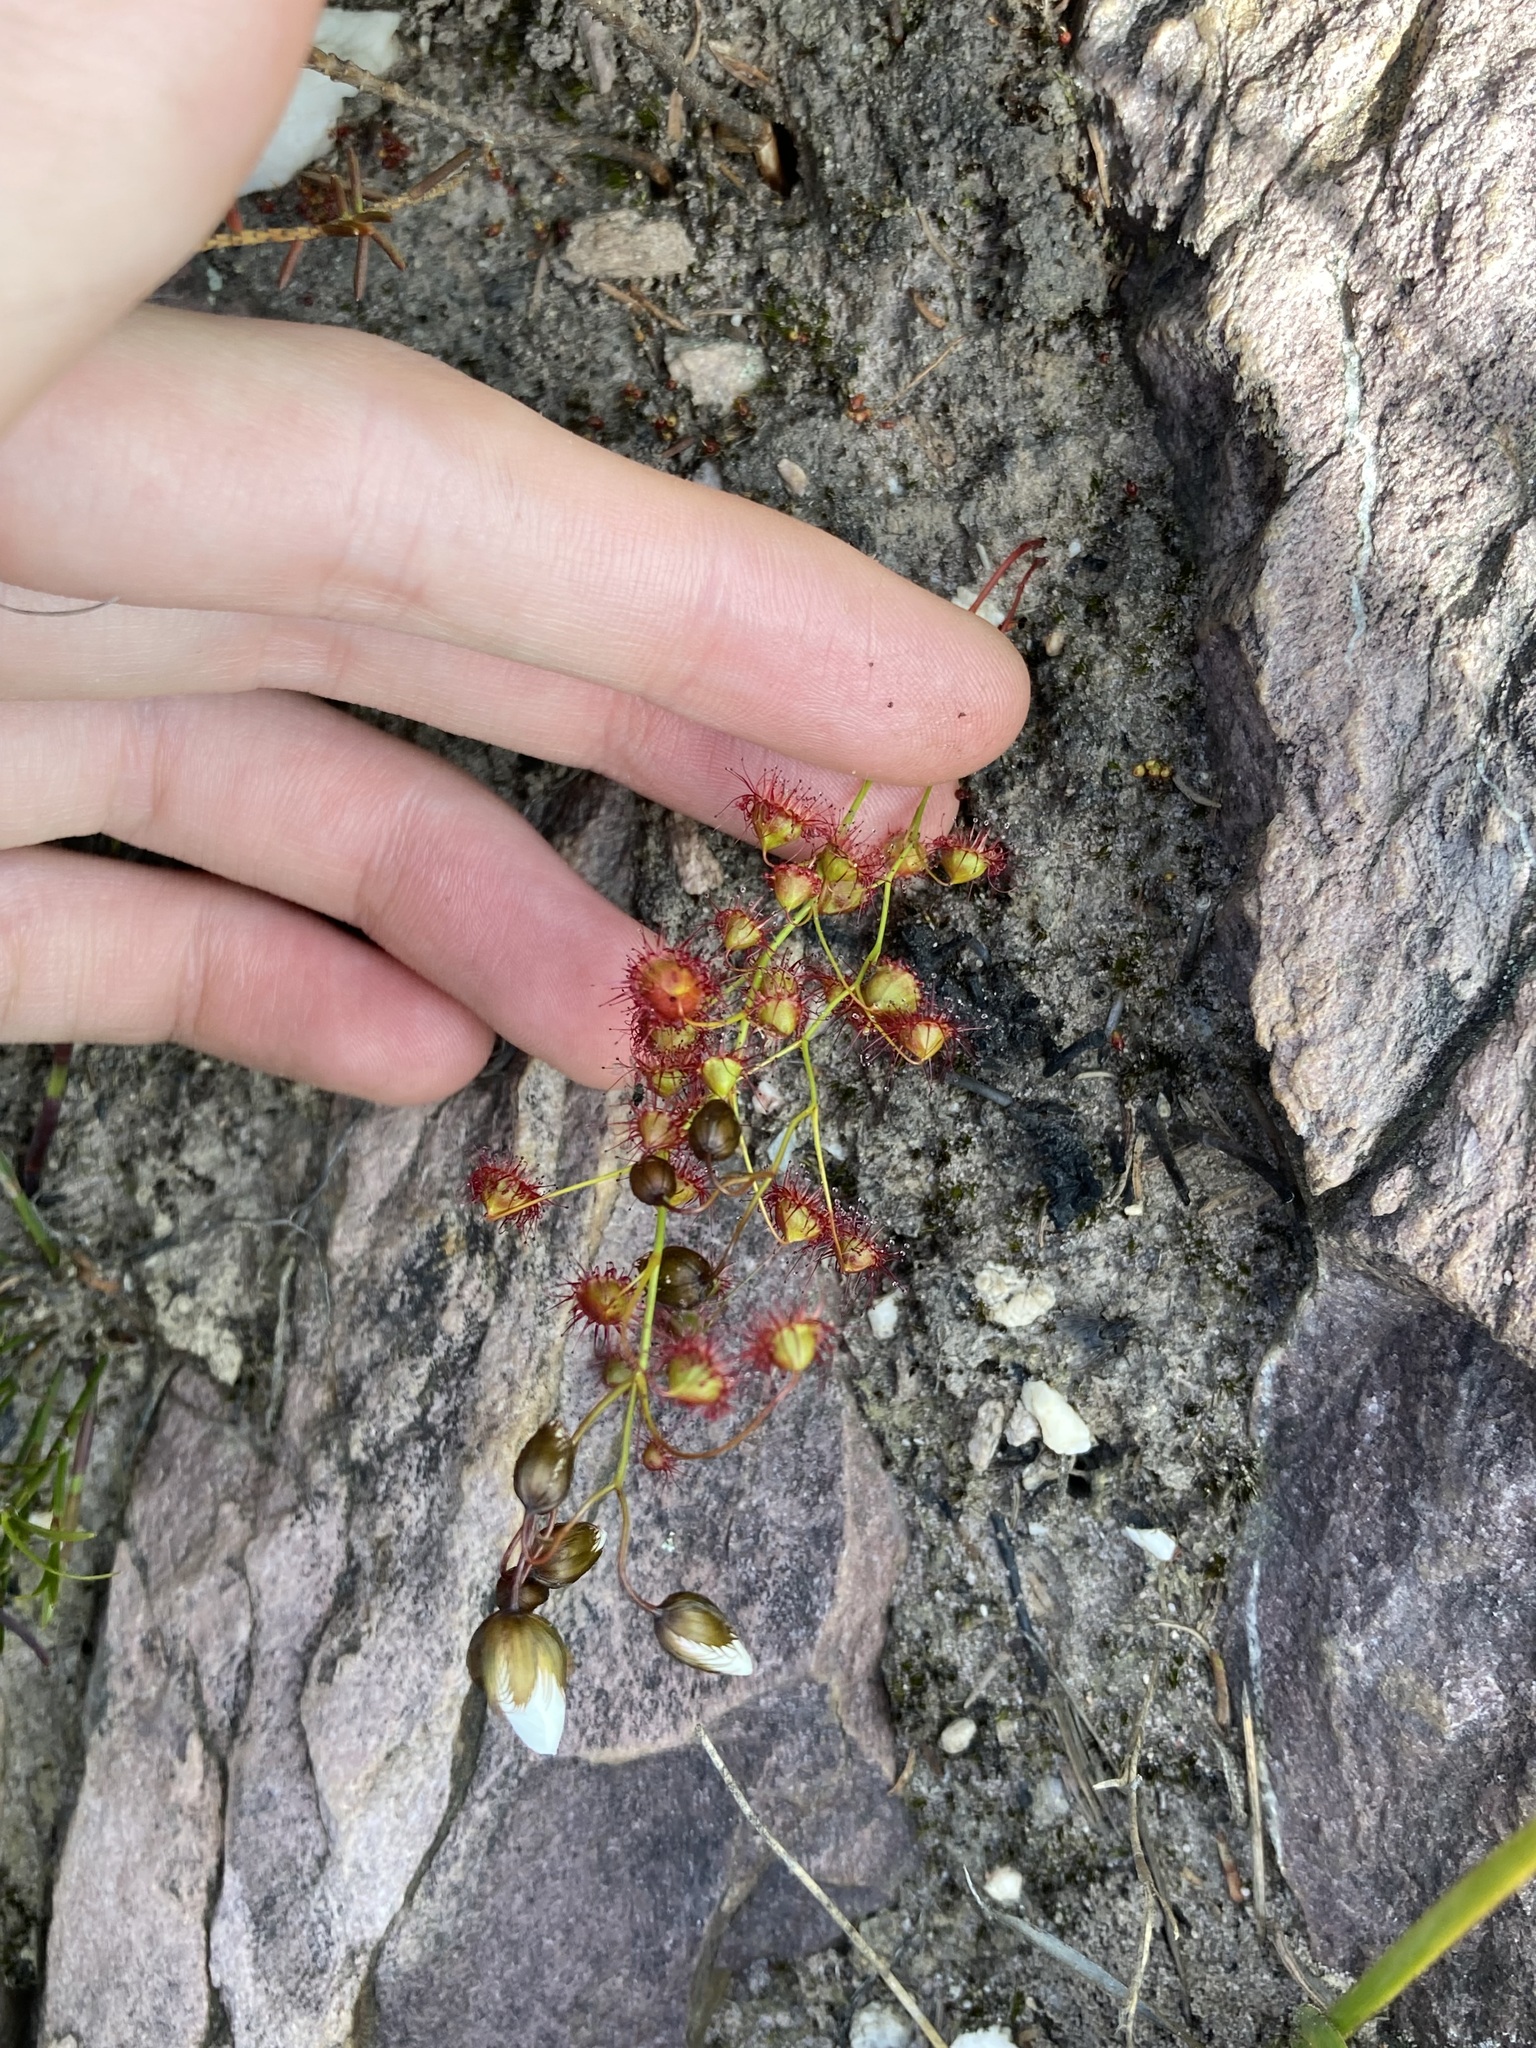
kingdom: Plantae
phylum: Tracheophyta
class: Magnoliopsida
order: Caryophyllales
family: Droseraceae
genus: Drosera
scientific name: Drosera huegelii
